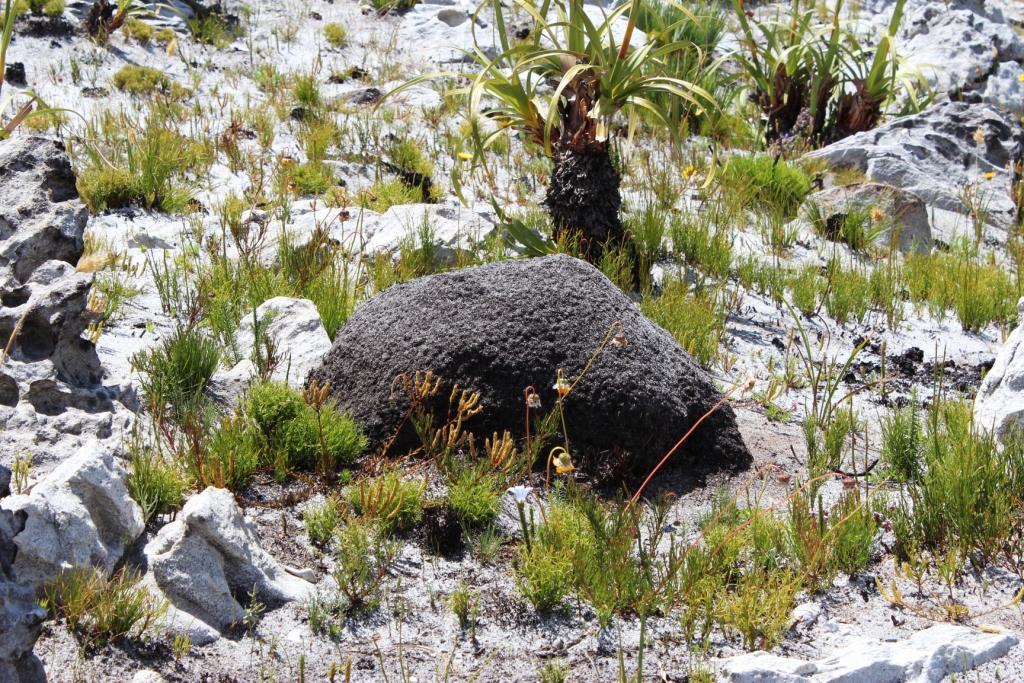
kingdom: Animalia
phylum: Arthropoda
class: Insecta
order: Blattodea
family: Termitidae
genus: Amitermes
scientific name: Amitermes hastatus
